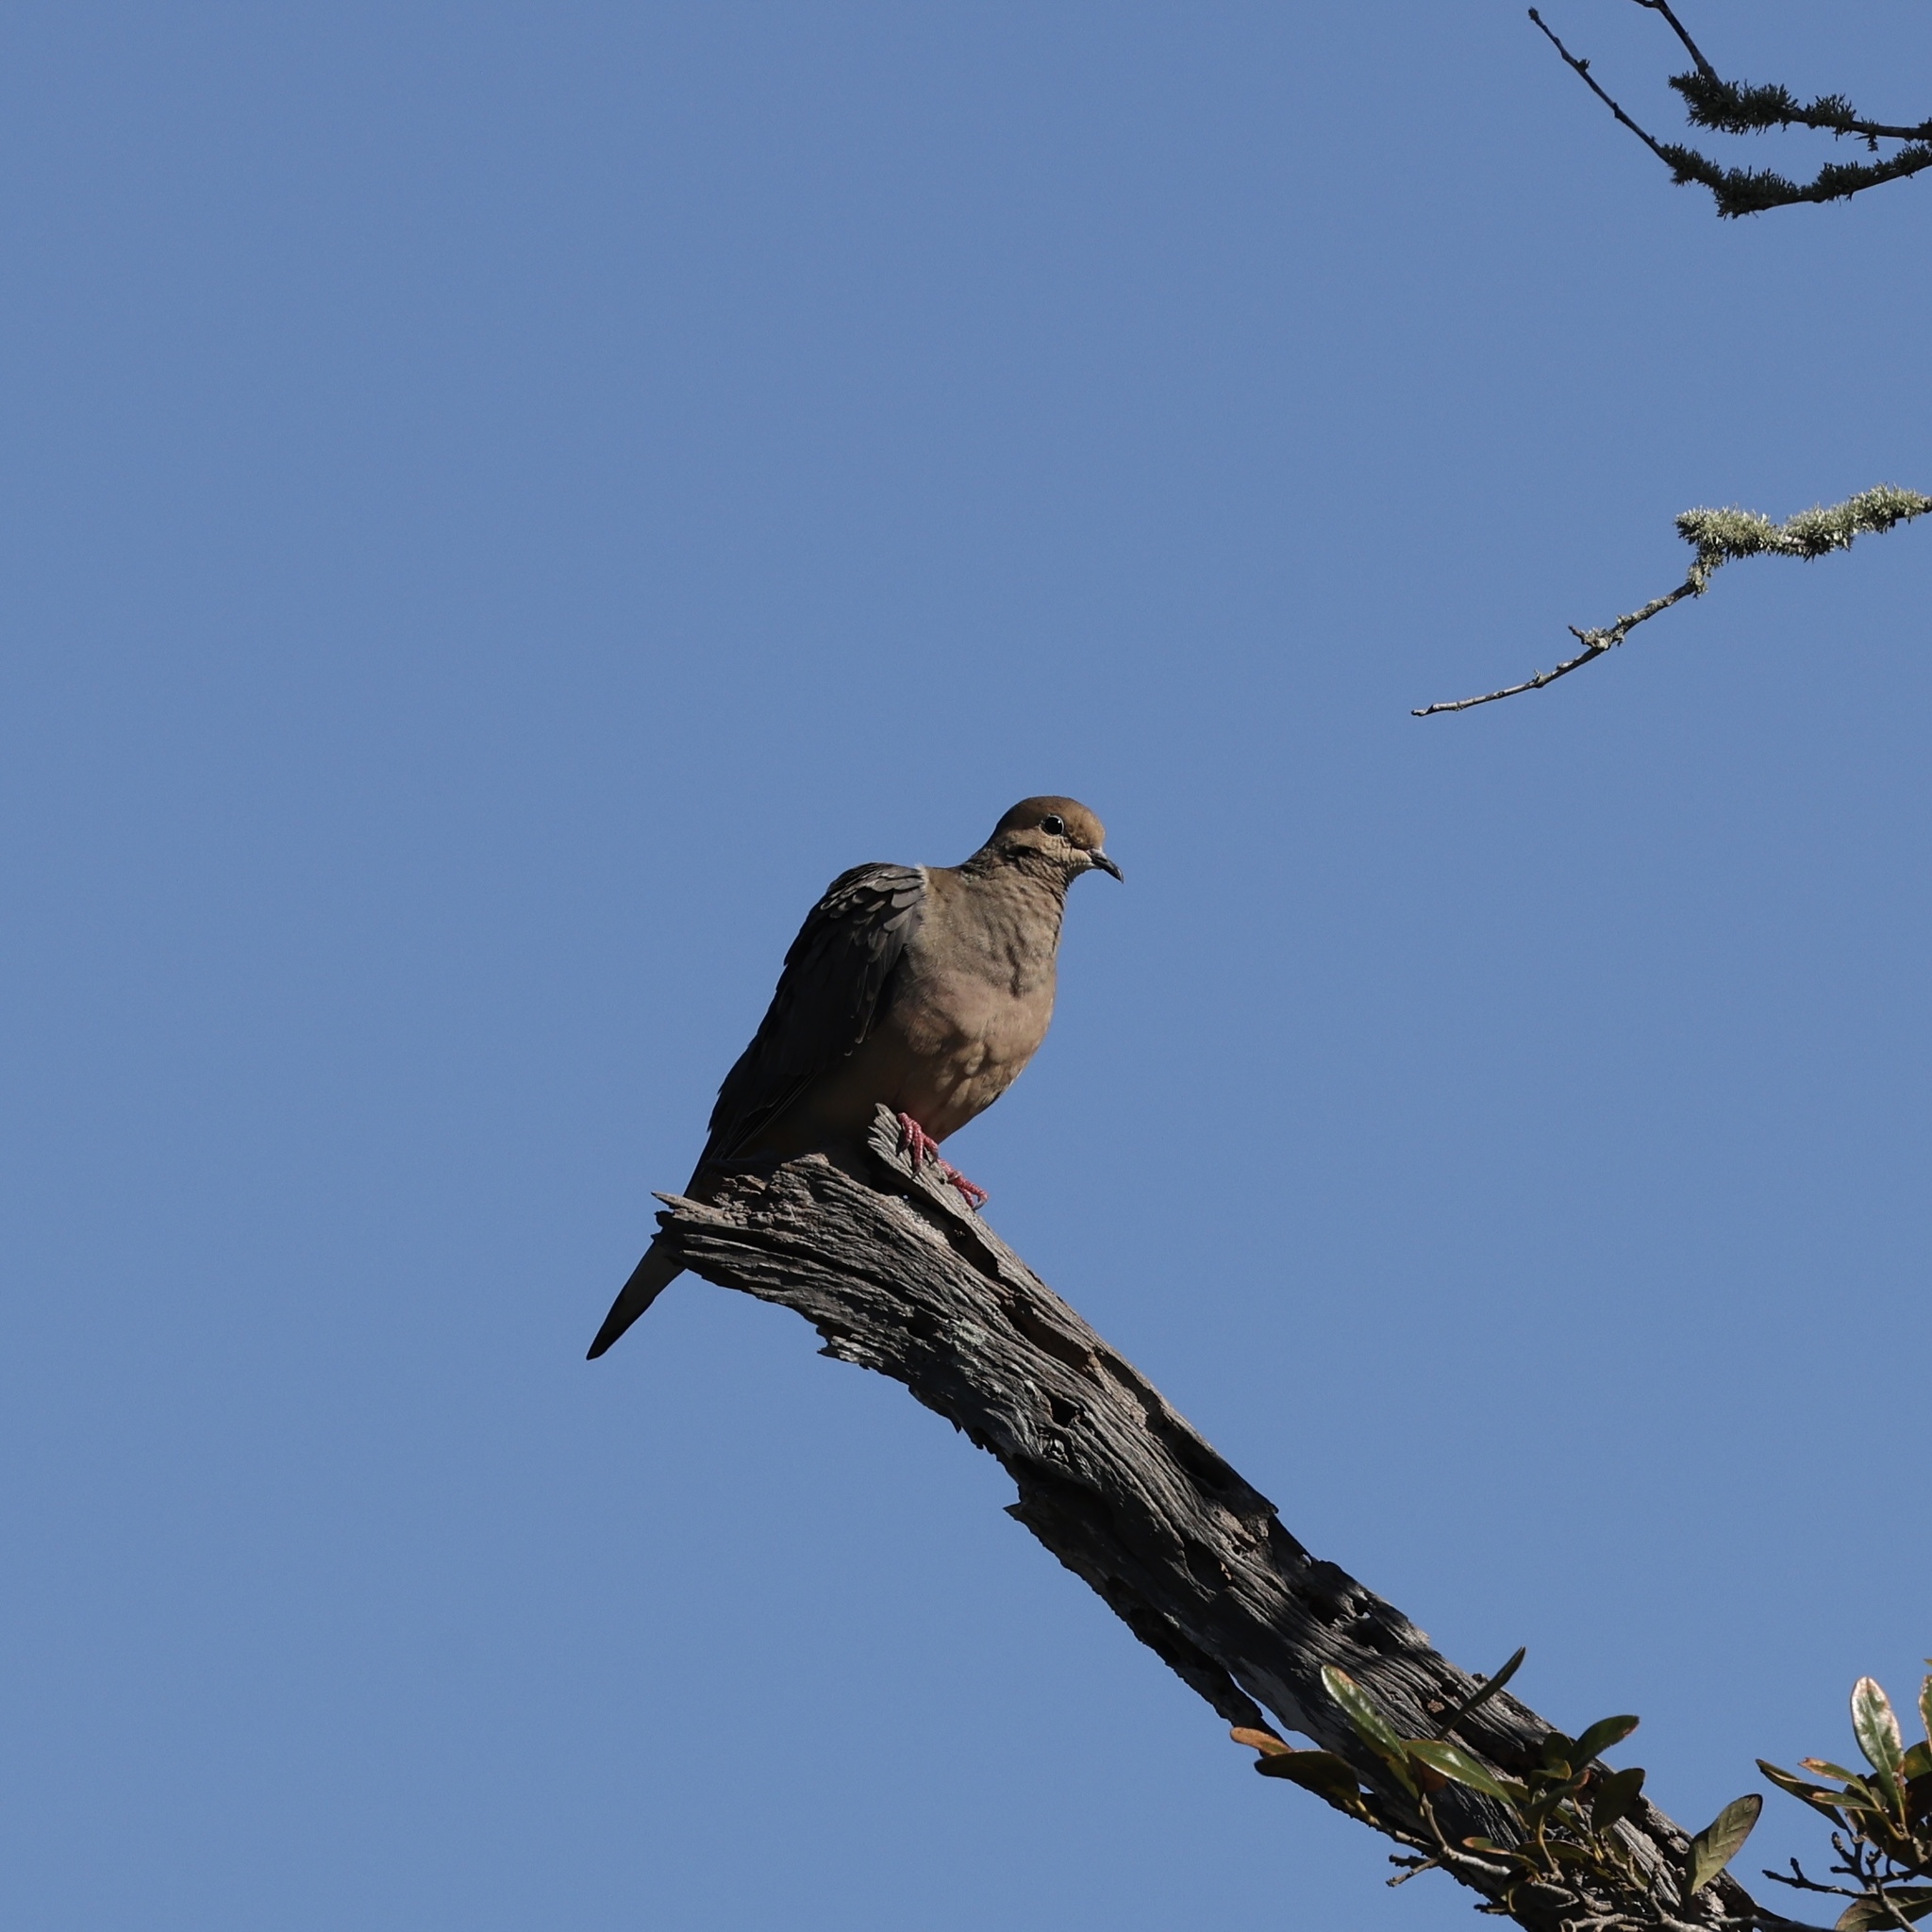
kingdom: Animalia
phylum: Chordata
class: Aves
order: Columbiformes
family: Columbidae
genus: Zenaida
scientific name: Zenaida macroura
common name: Mourning dove
